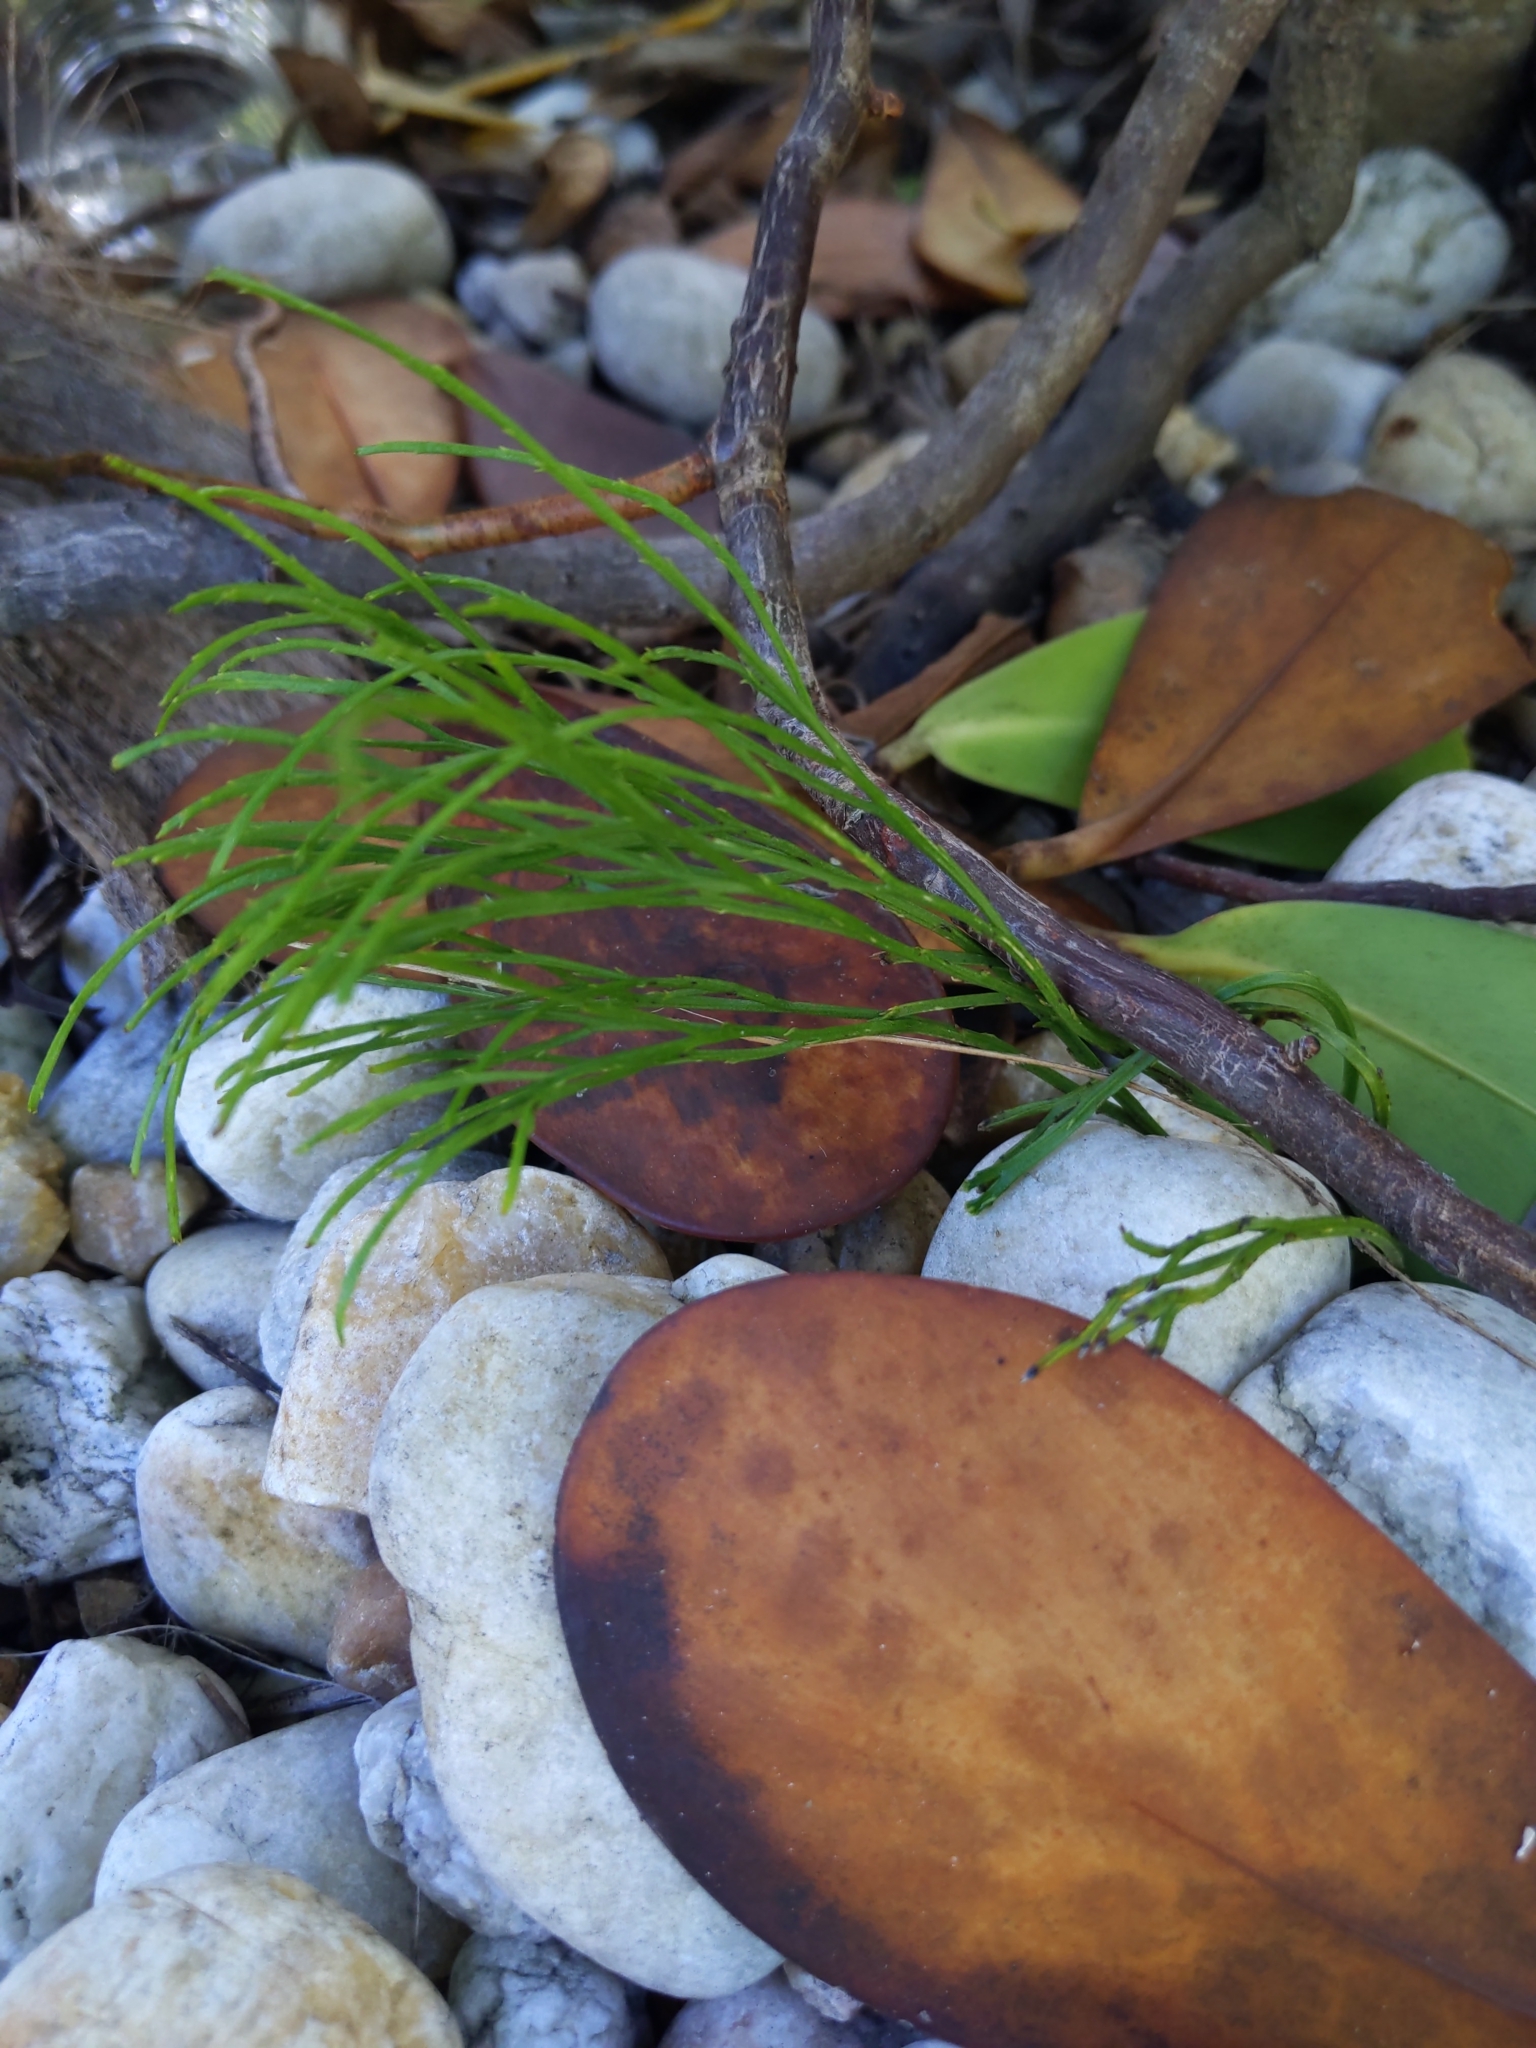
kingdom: Plantae
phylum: Tracheophyta
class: Polypodiopsida
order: Psilotales
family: Psilotaceae
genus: Psilotum
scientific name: Psilotum nudum
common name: Skeleton fork fern
